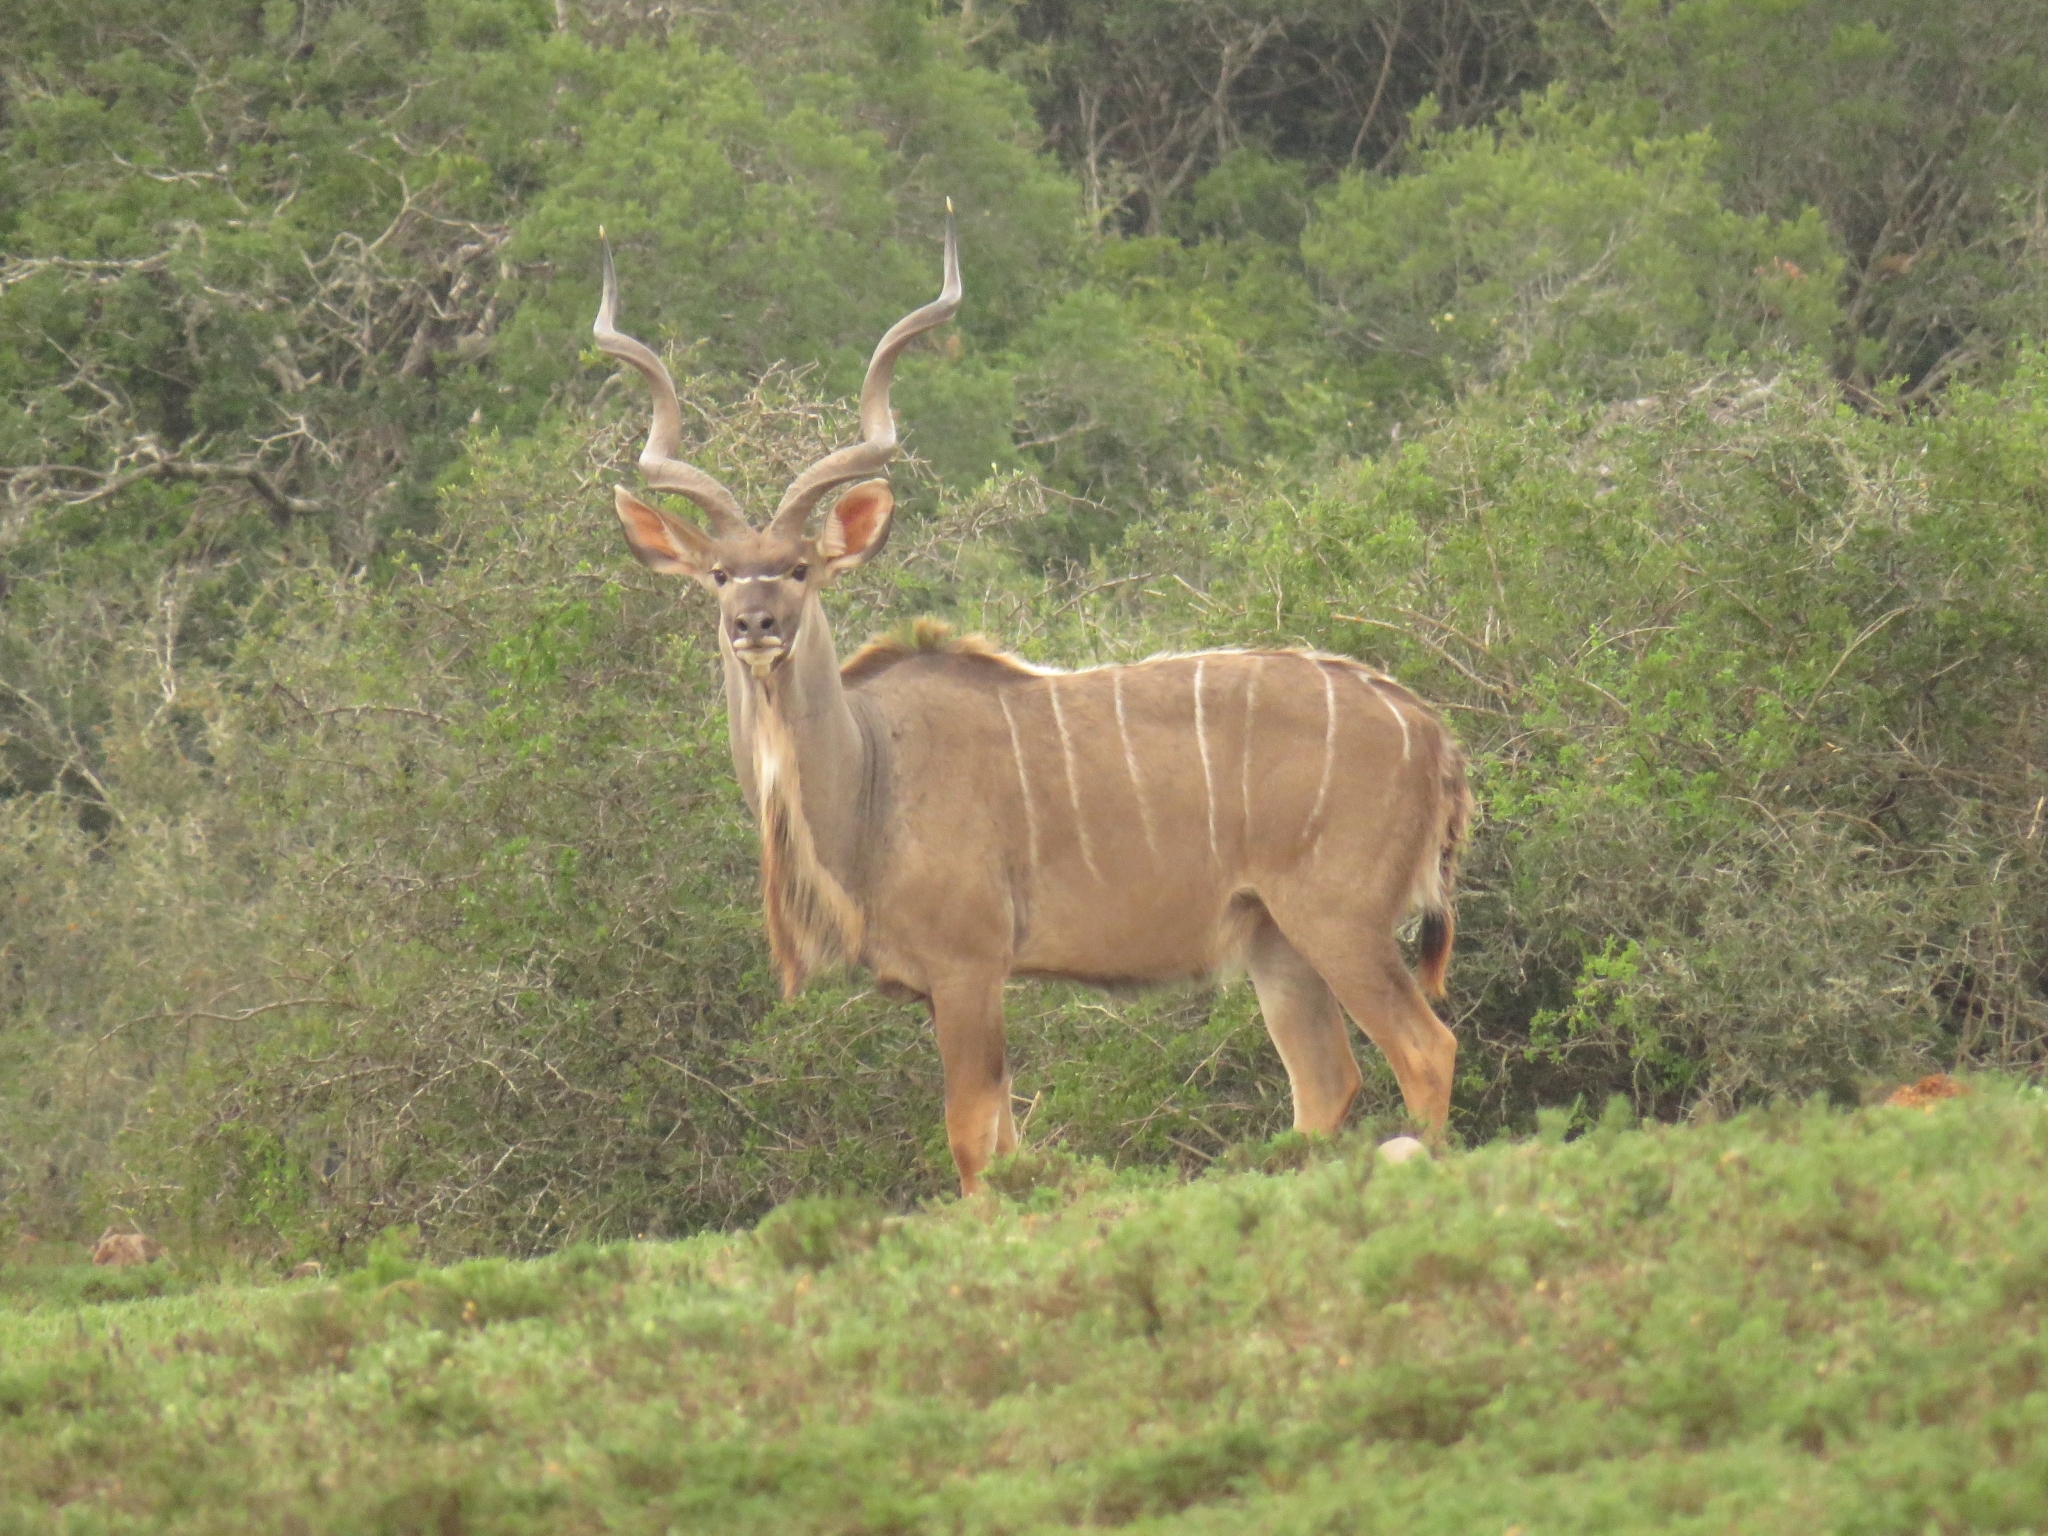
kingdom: Animalia
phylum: Chordata
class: Mammalia
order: Artiodactyla
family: Bovidae
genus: Tragelaphus
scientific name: Tragelaphus strepsiceros
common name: Greater kudu
